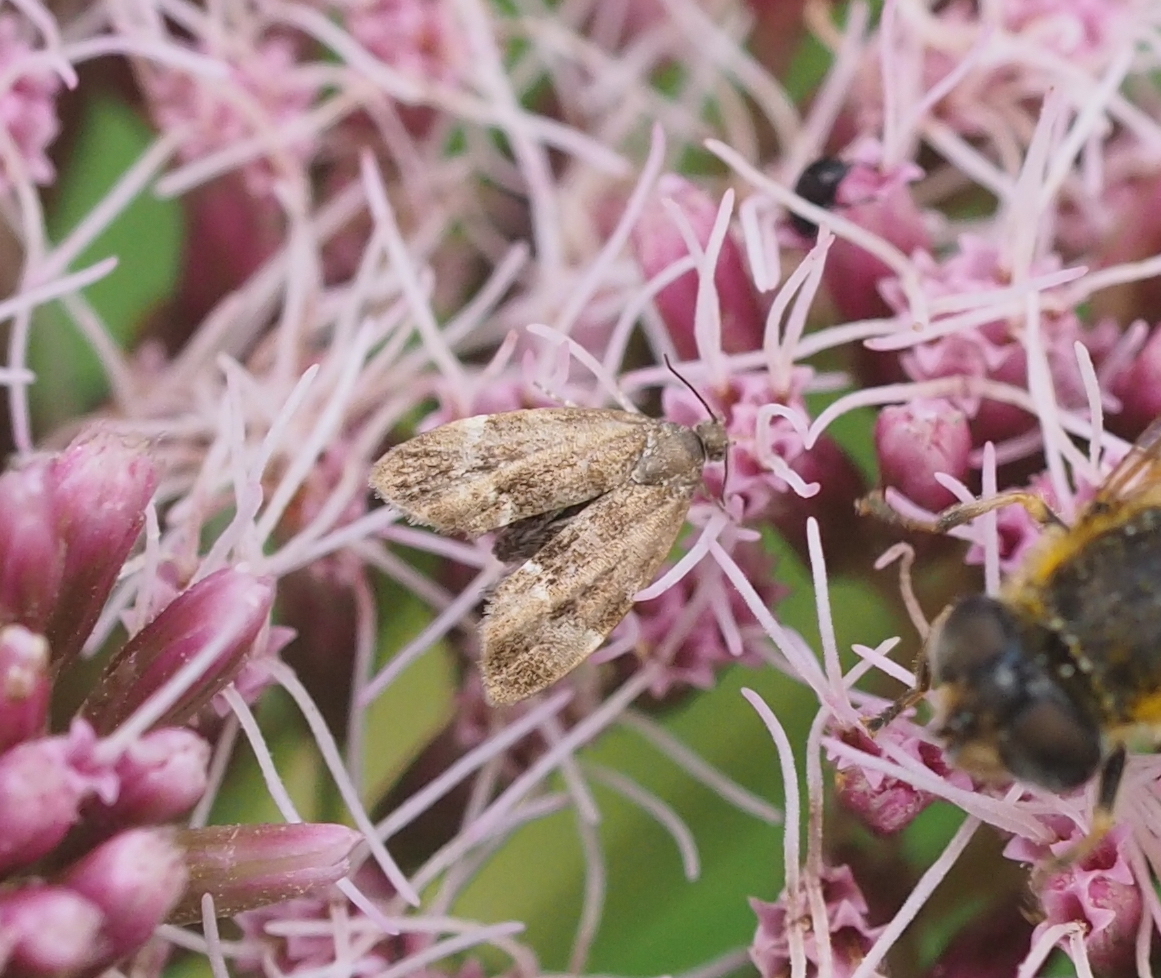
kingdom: Animalia
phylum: Arthropoda
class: Insecta
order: Lepidoptera
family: Choreutidae
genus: Anthophila
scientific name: Anthophila fabriciana
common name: Nettle-tap
